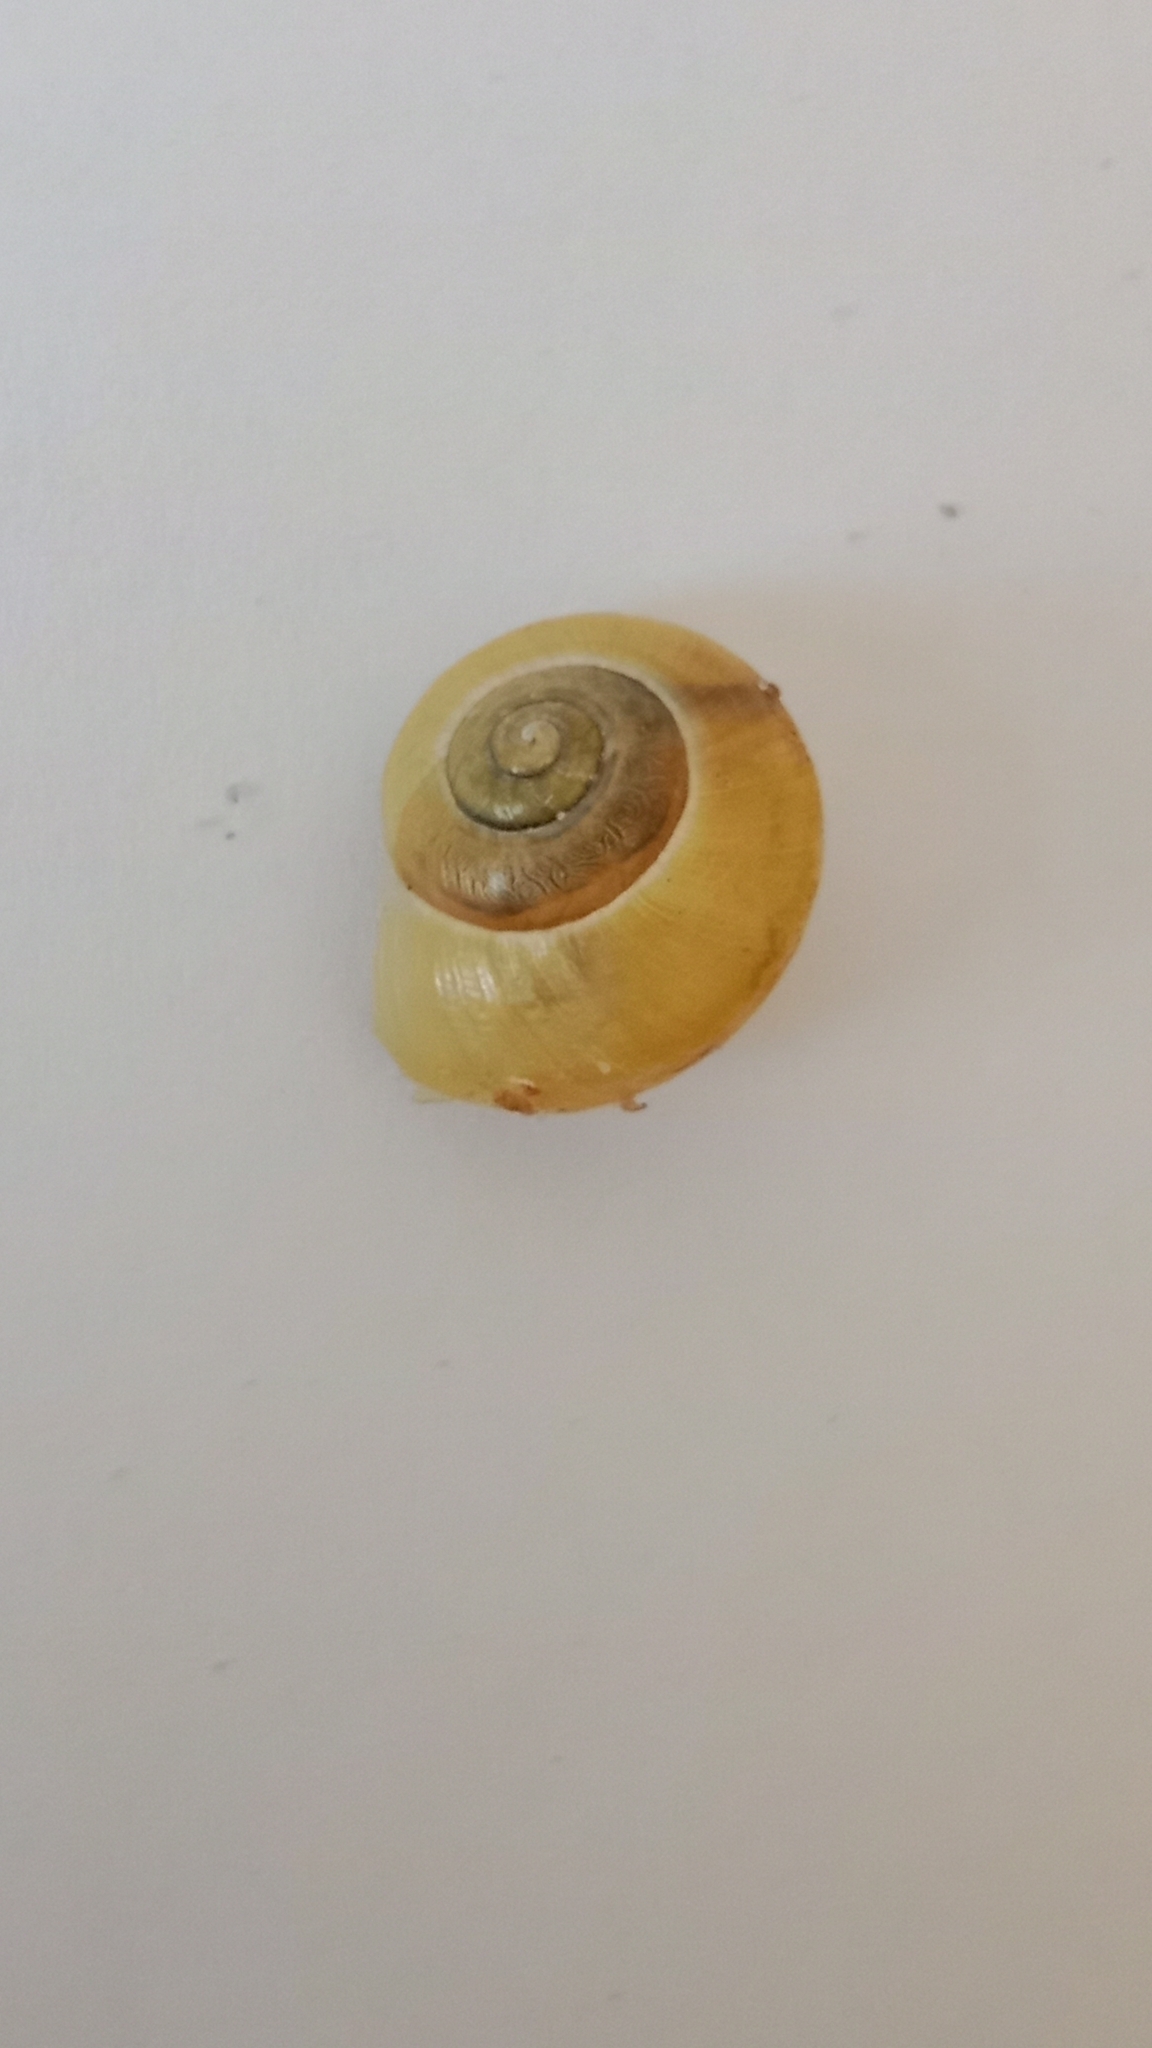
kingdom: Animalia
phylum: Mollusca
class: Gastropoda
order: Stylommatophora
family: Helicidae
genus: Cepaea
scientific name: Cepaea
